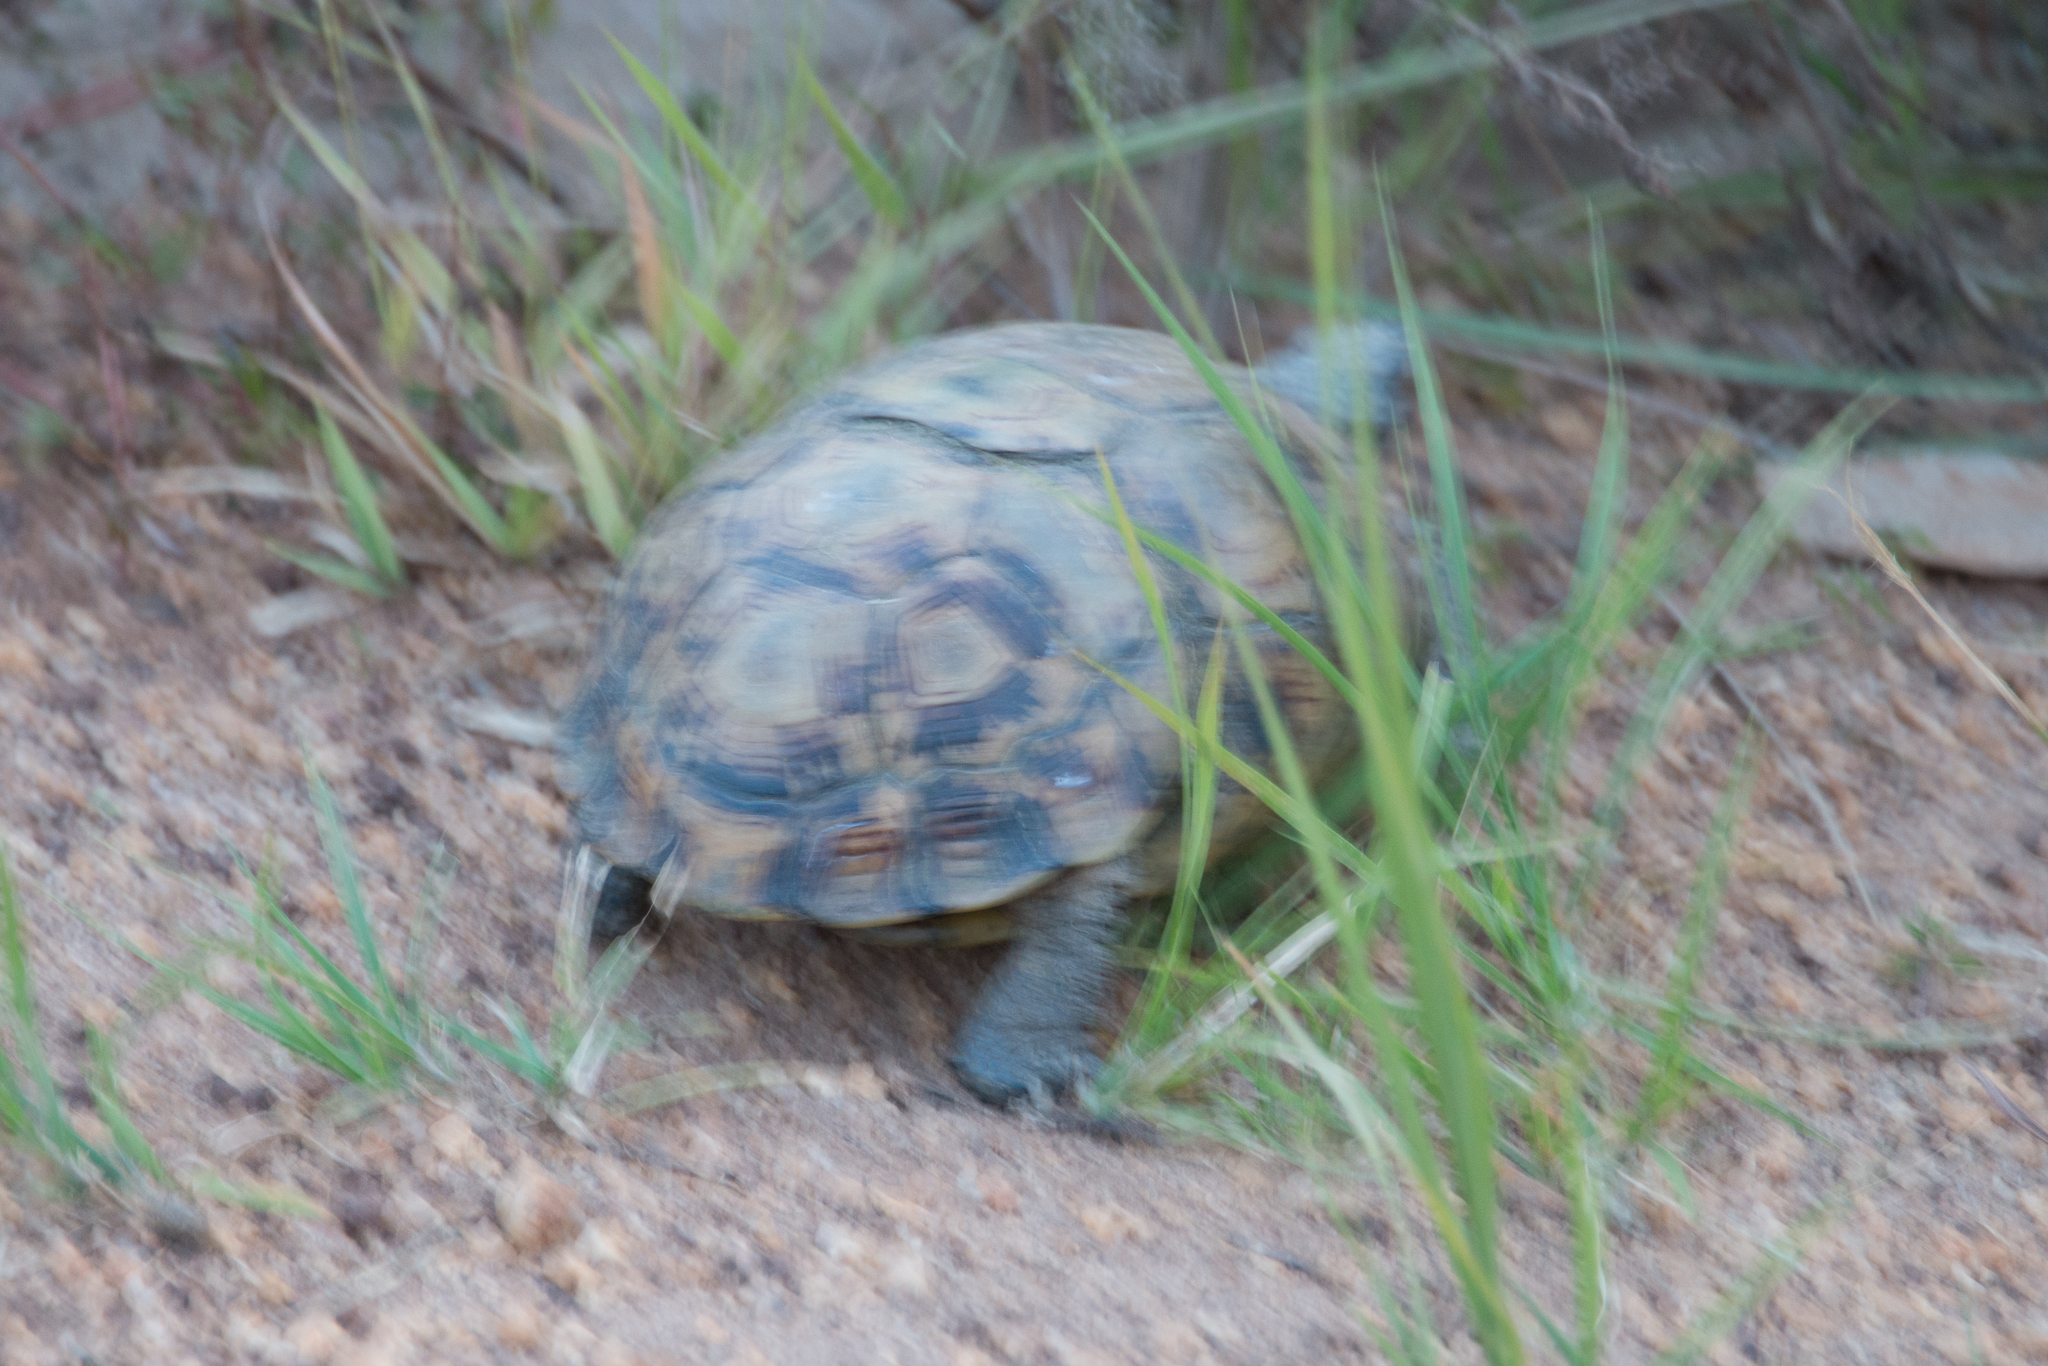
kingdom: Animalia
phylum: Chordata
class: Testudines
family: Testudinidae
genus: Kinixys
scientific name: Kinixys belliana
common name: Bells hinge-back tortoise
